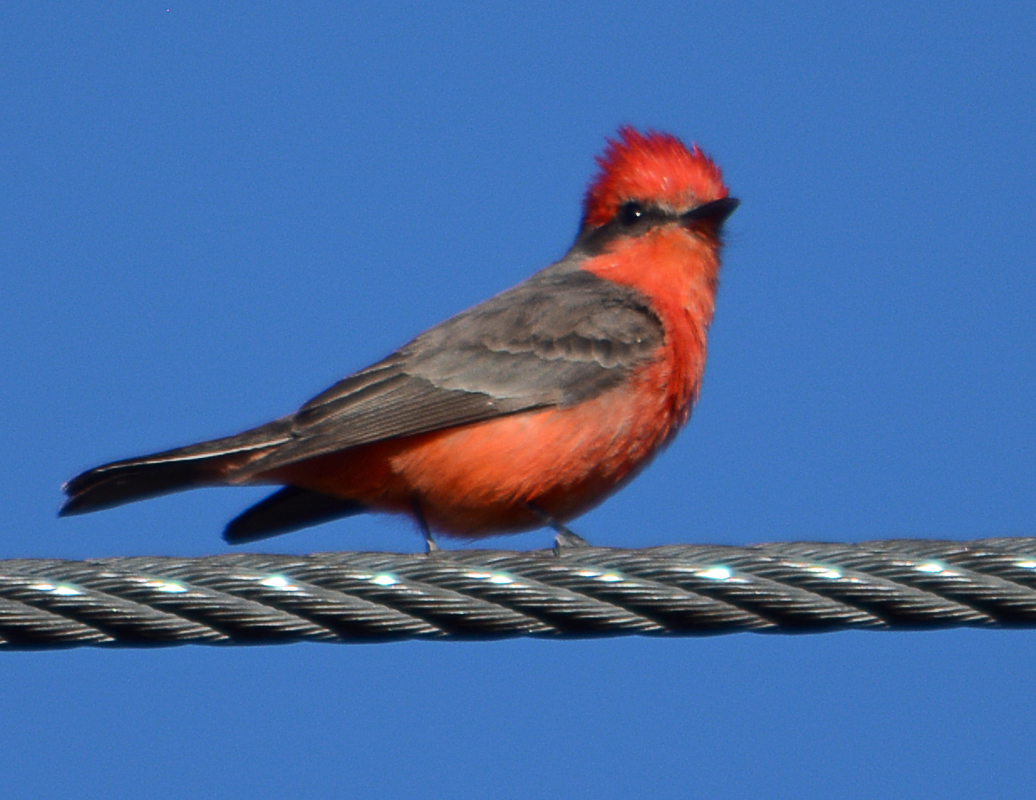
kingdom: Animalia
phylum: Chordata
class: Aves
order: Passeriformes
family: Tyrannidae
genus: Pyrocephalus
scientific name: Pyrocephalus rubinus
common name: Vermilion flycatcher
